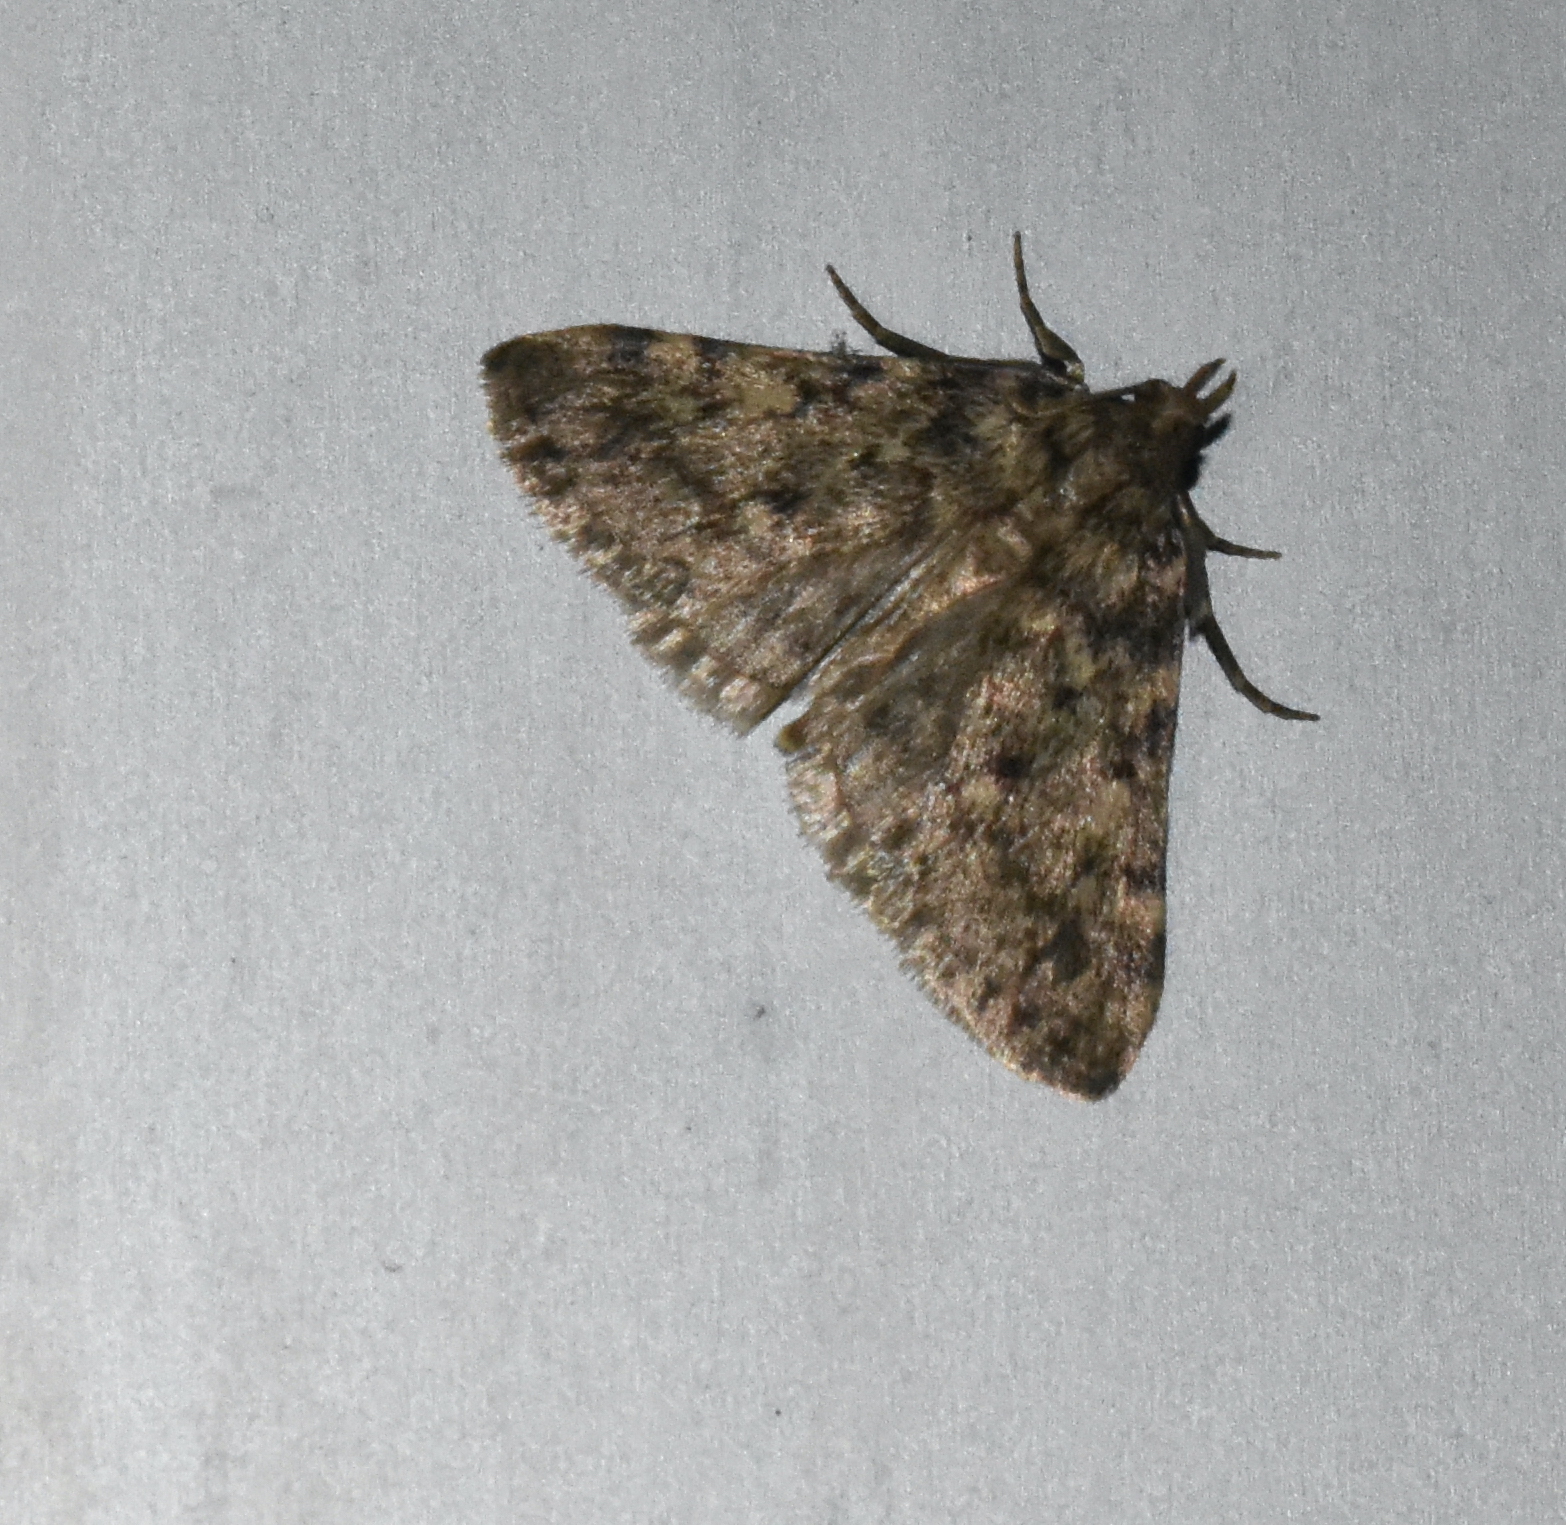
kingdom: Animalia
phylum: Arthropoda
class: Insecta
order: Lepidoptera
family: Pyralidae
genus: Aglossa
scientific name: Aglossa pinguinalis
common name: Large tabby
